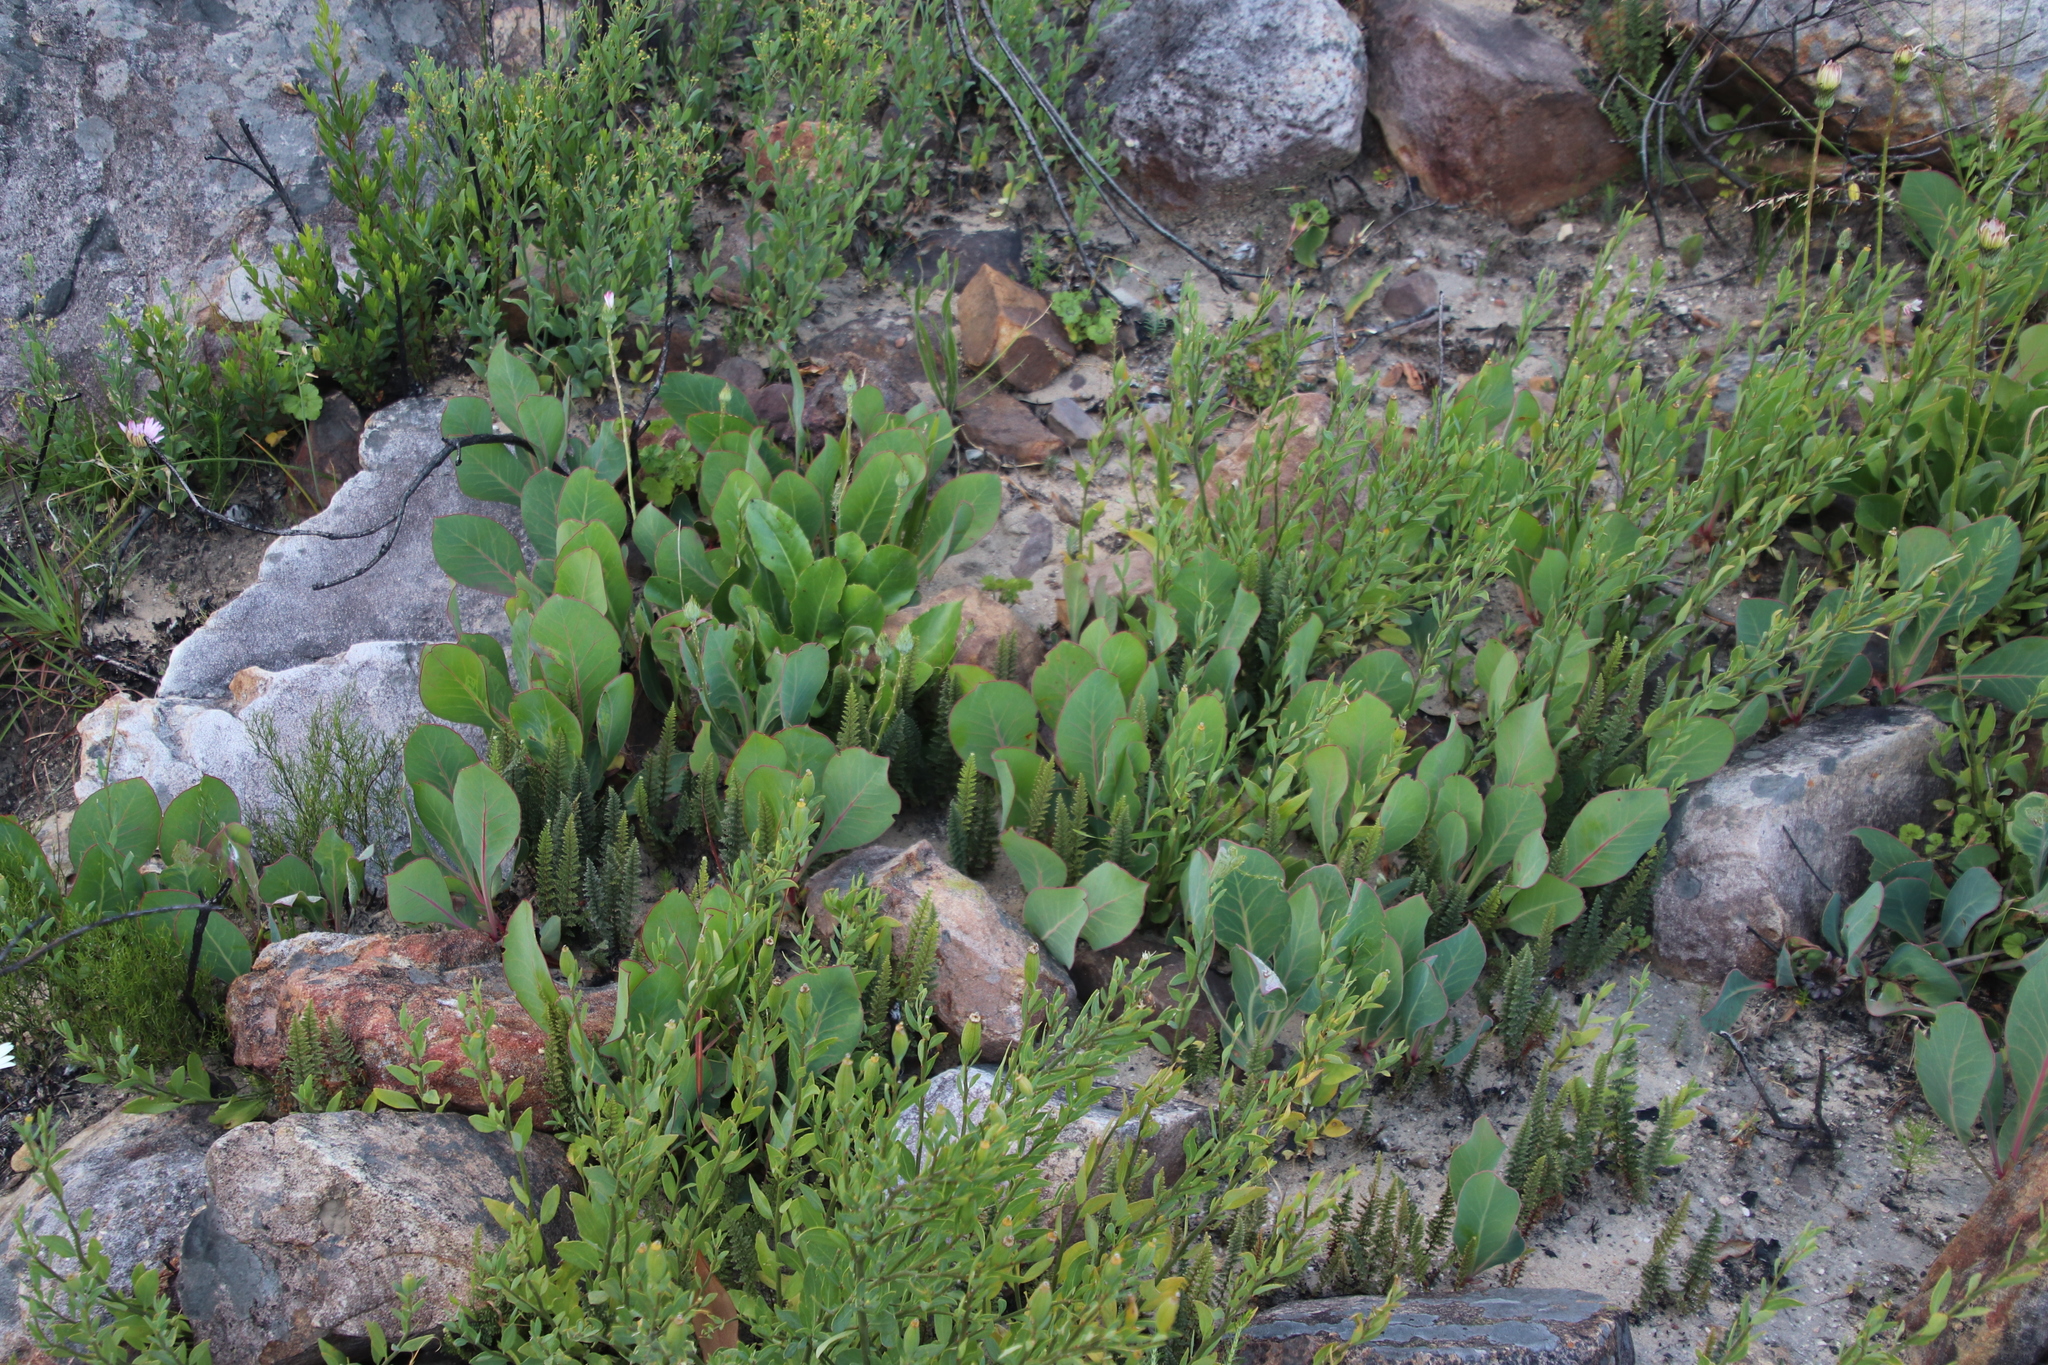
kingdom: Plantae
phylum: Tracheophyta
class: Magnoliopsida
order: Proteales
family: Proteaceae
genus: Protea
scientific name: Protea acaulos
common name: Common ground sugarbush
